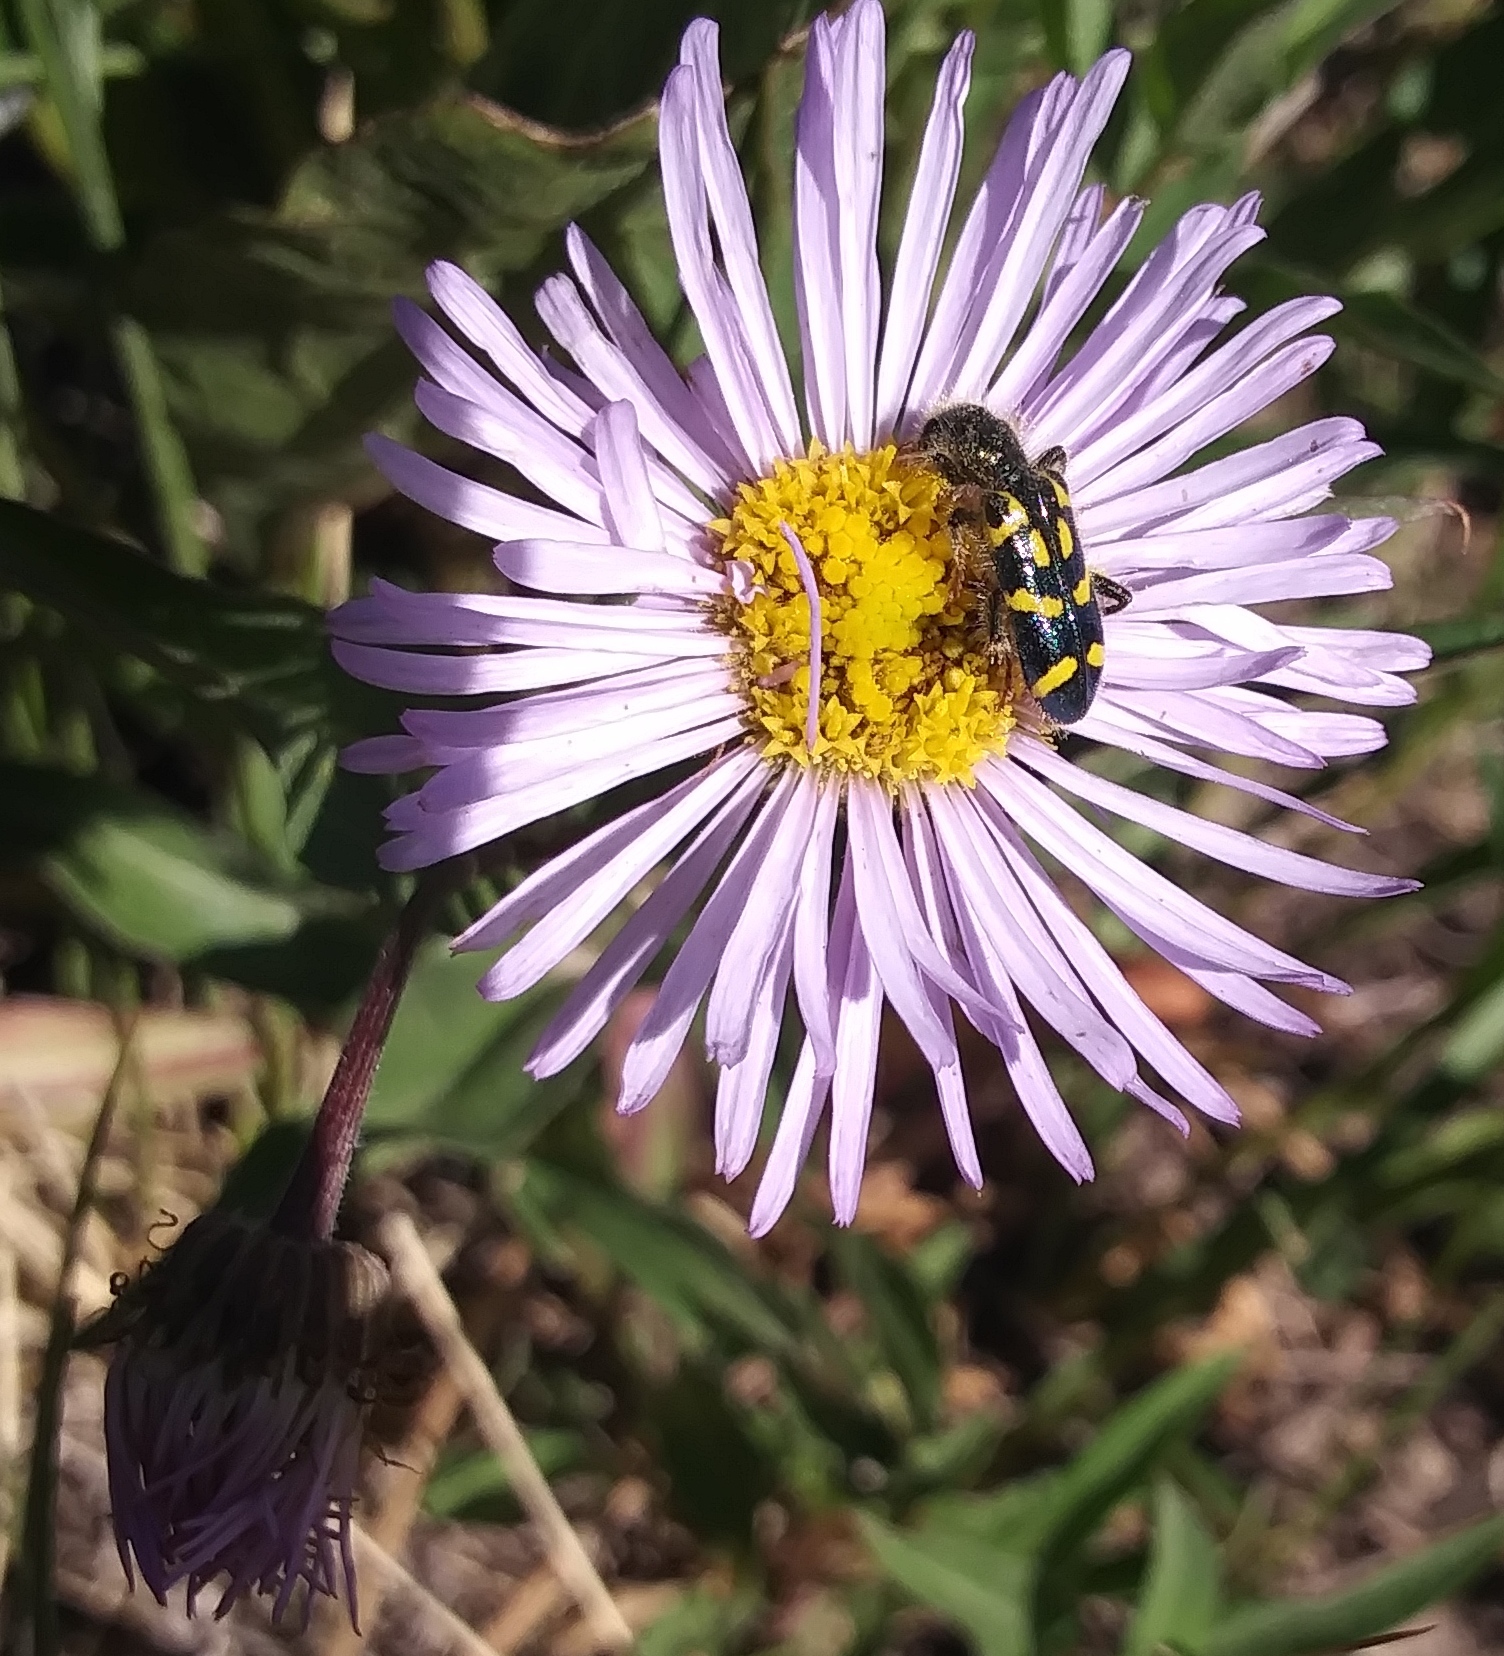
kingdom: Animalia
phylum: Arthropoda
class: Insecta
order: Coleoptera
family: Cleridae
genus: Trichodes
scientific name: Trichodes ornatus
